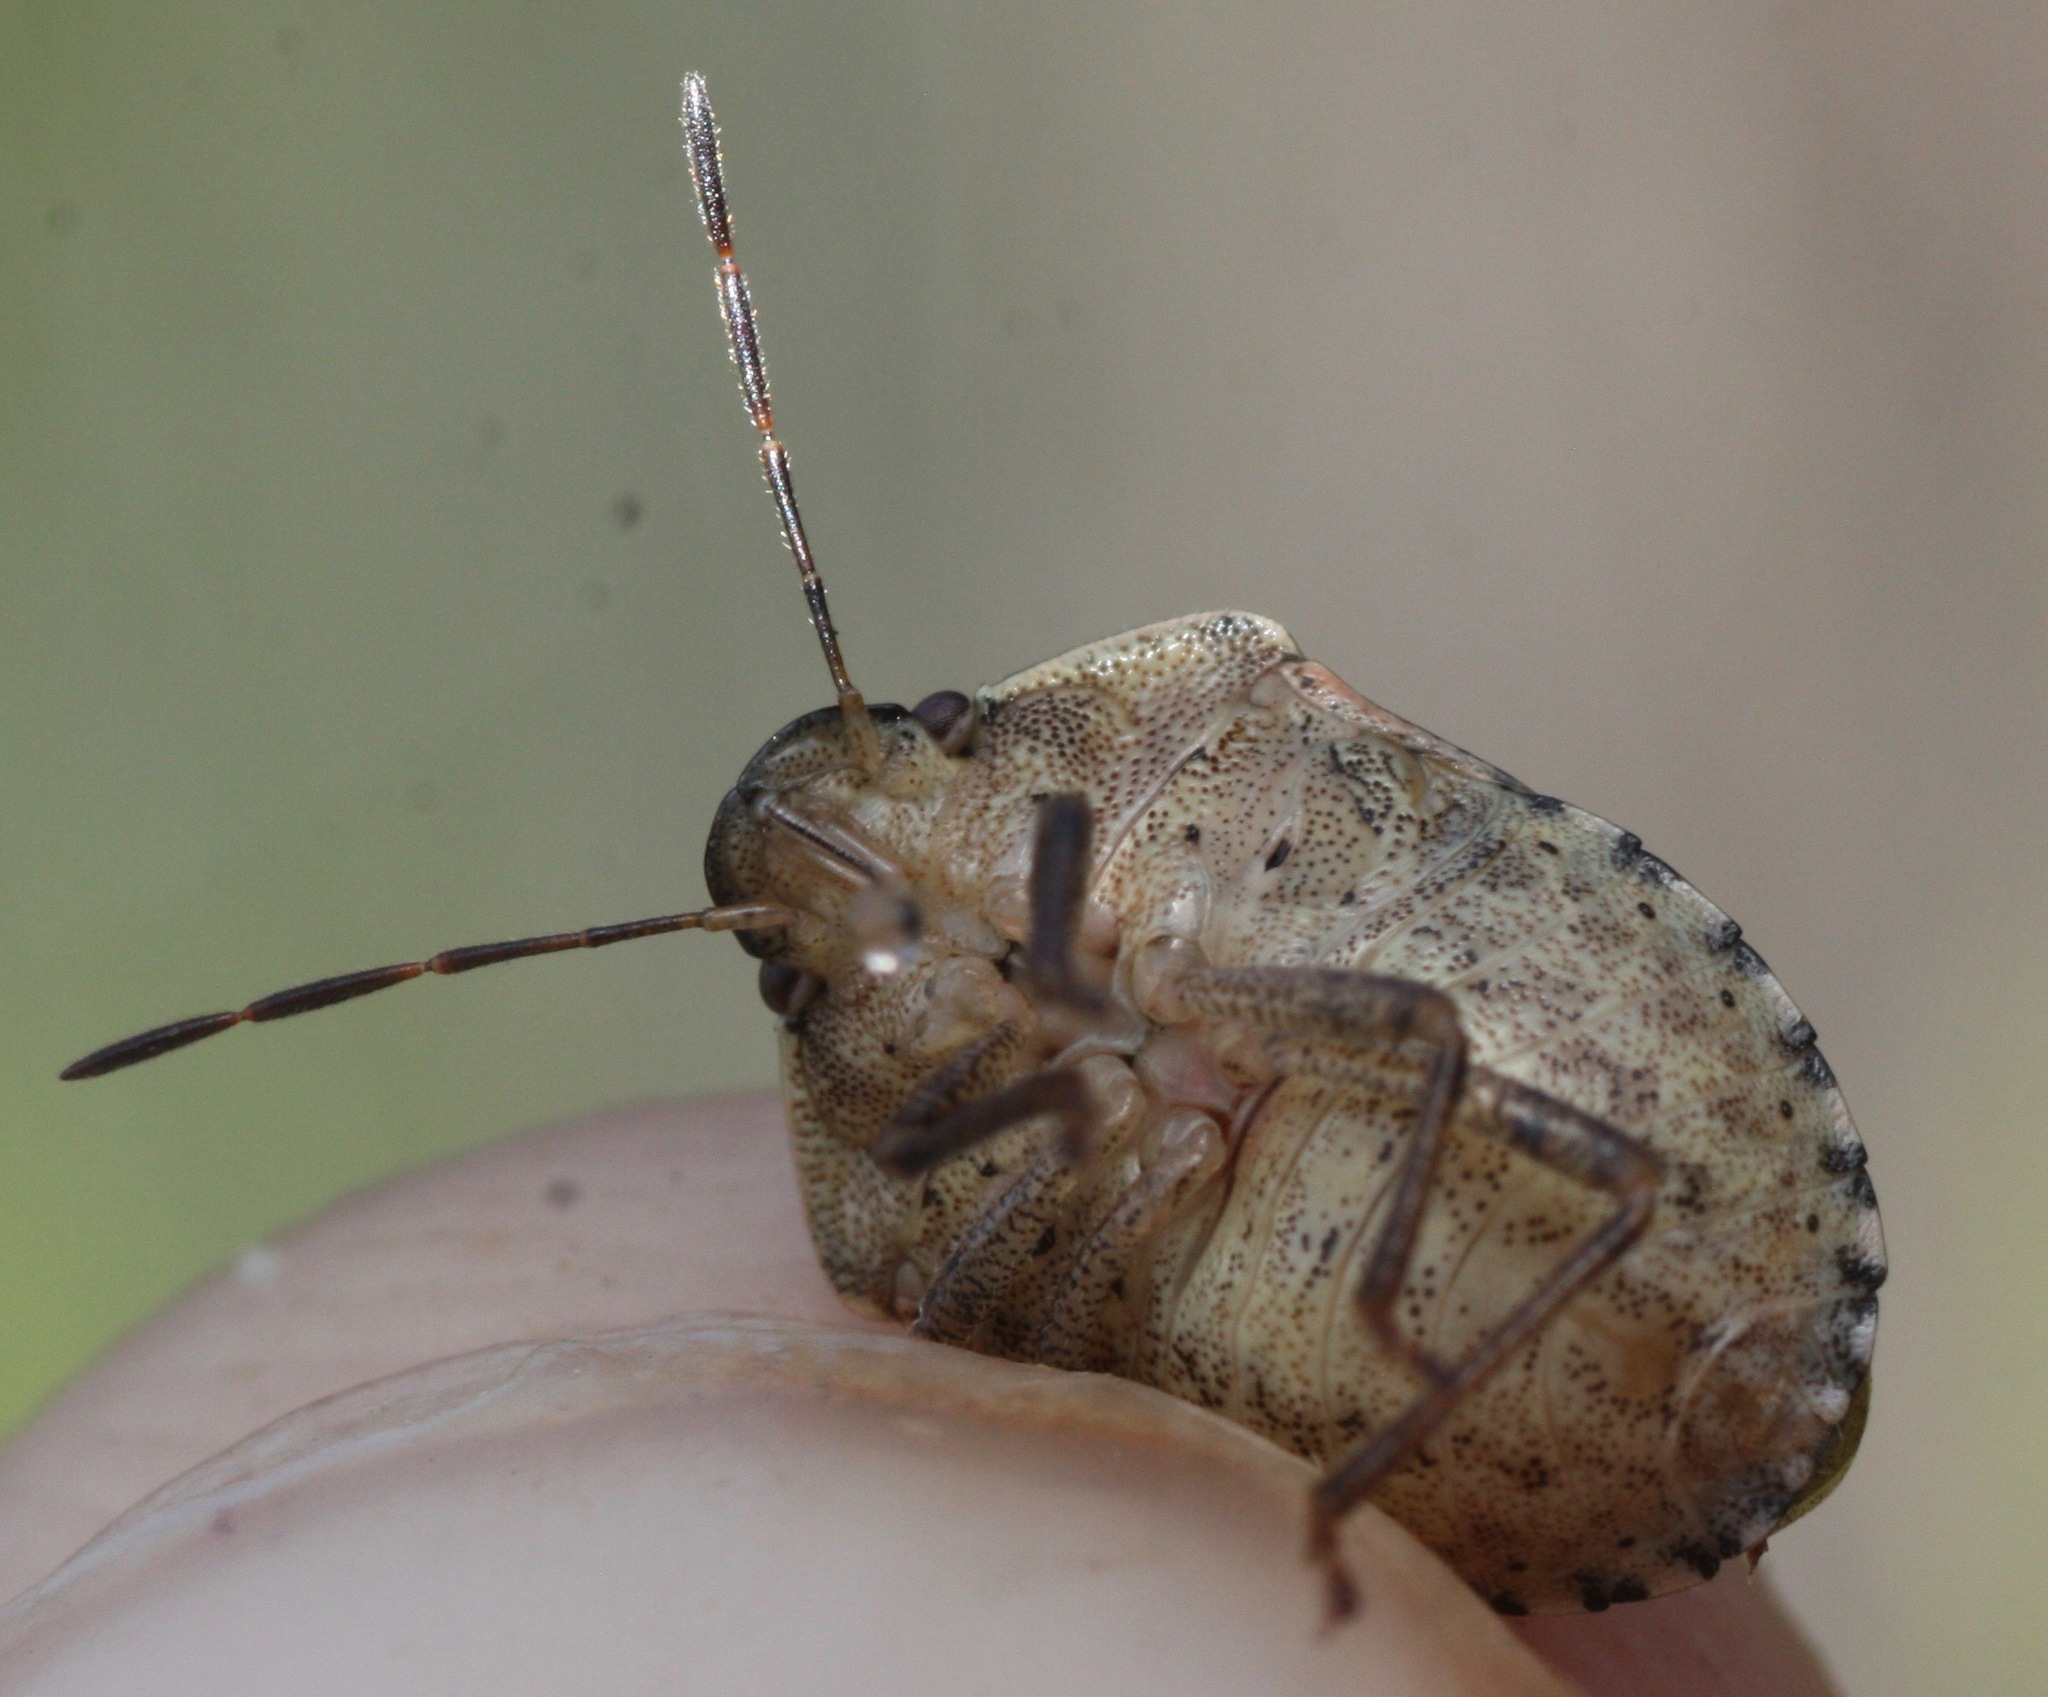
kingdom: Animalia
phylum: Arthropoda
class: Insecta
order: Hemiptera
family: Pentatomidae
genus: Holcostethus
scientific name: Holcostethus abbreviatus
